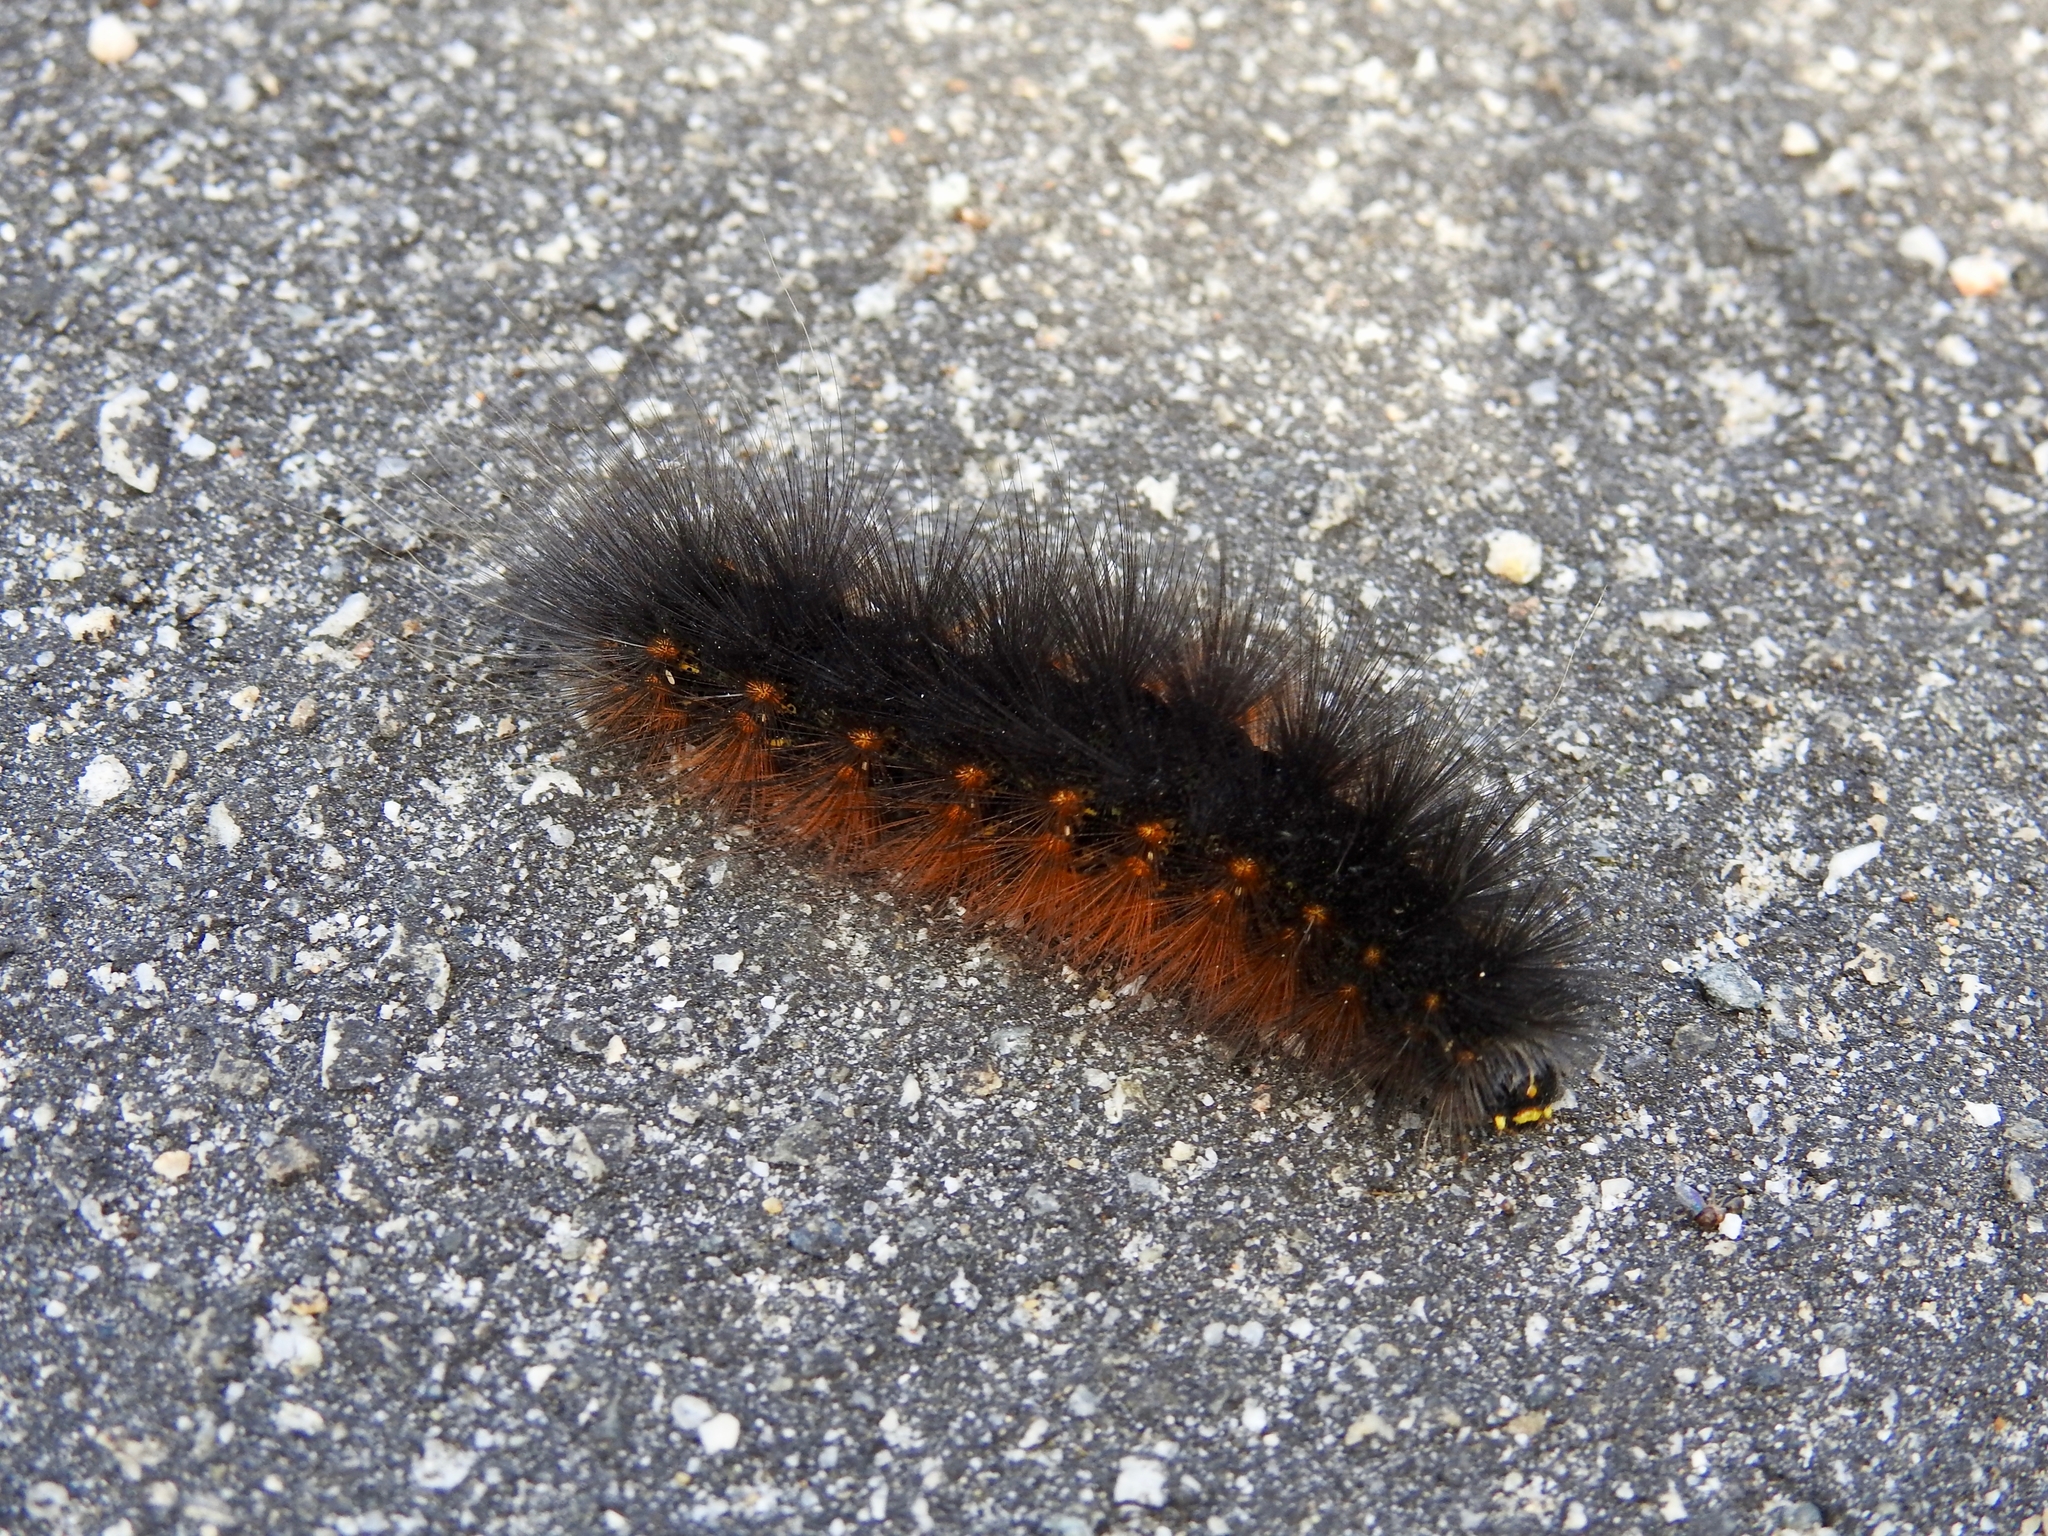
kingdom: Animalia
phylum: Arthropoda
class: Insecta
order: Lepidoptera
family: Erebidae
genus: Estigmene
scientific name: Estigmene acrea
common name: Salt marsh moth
